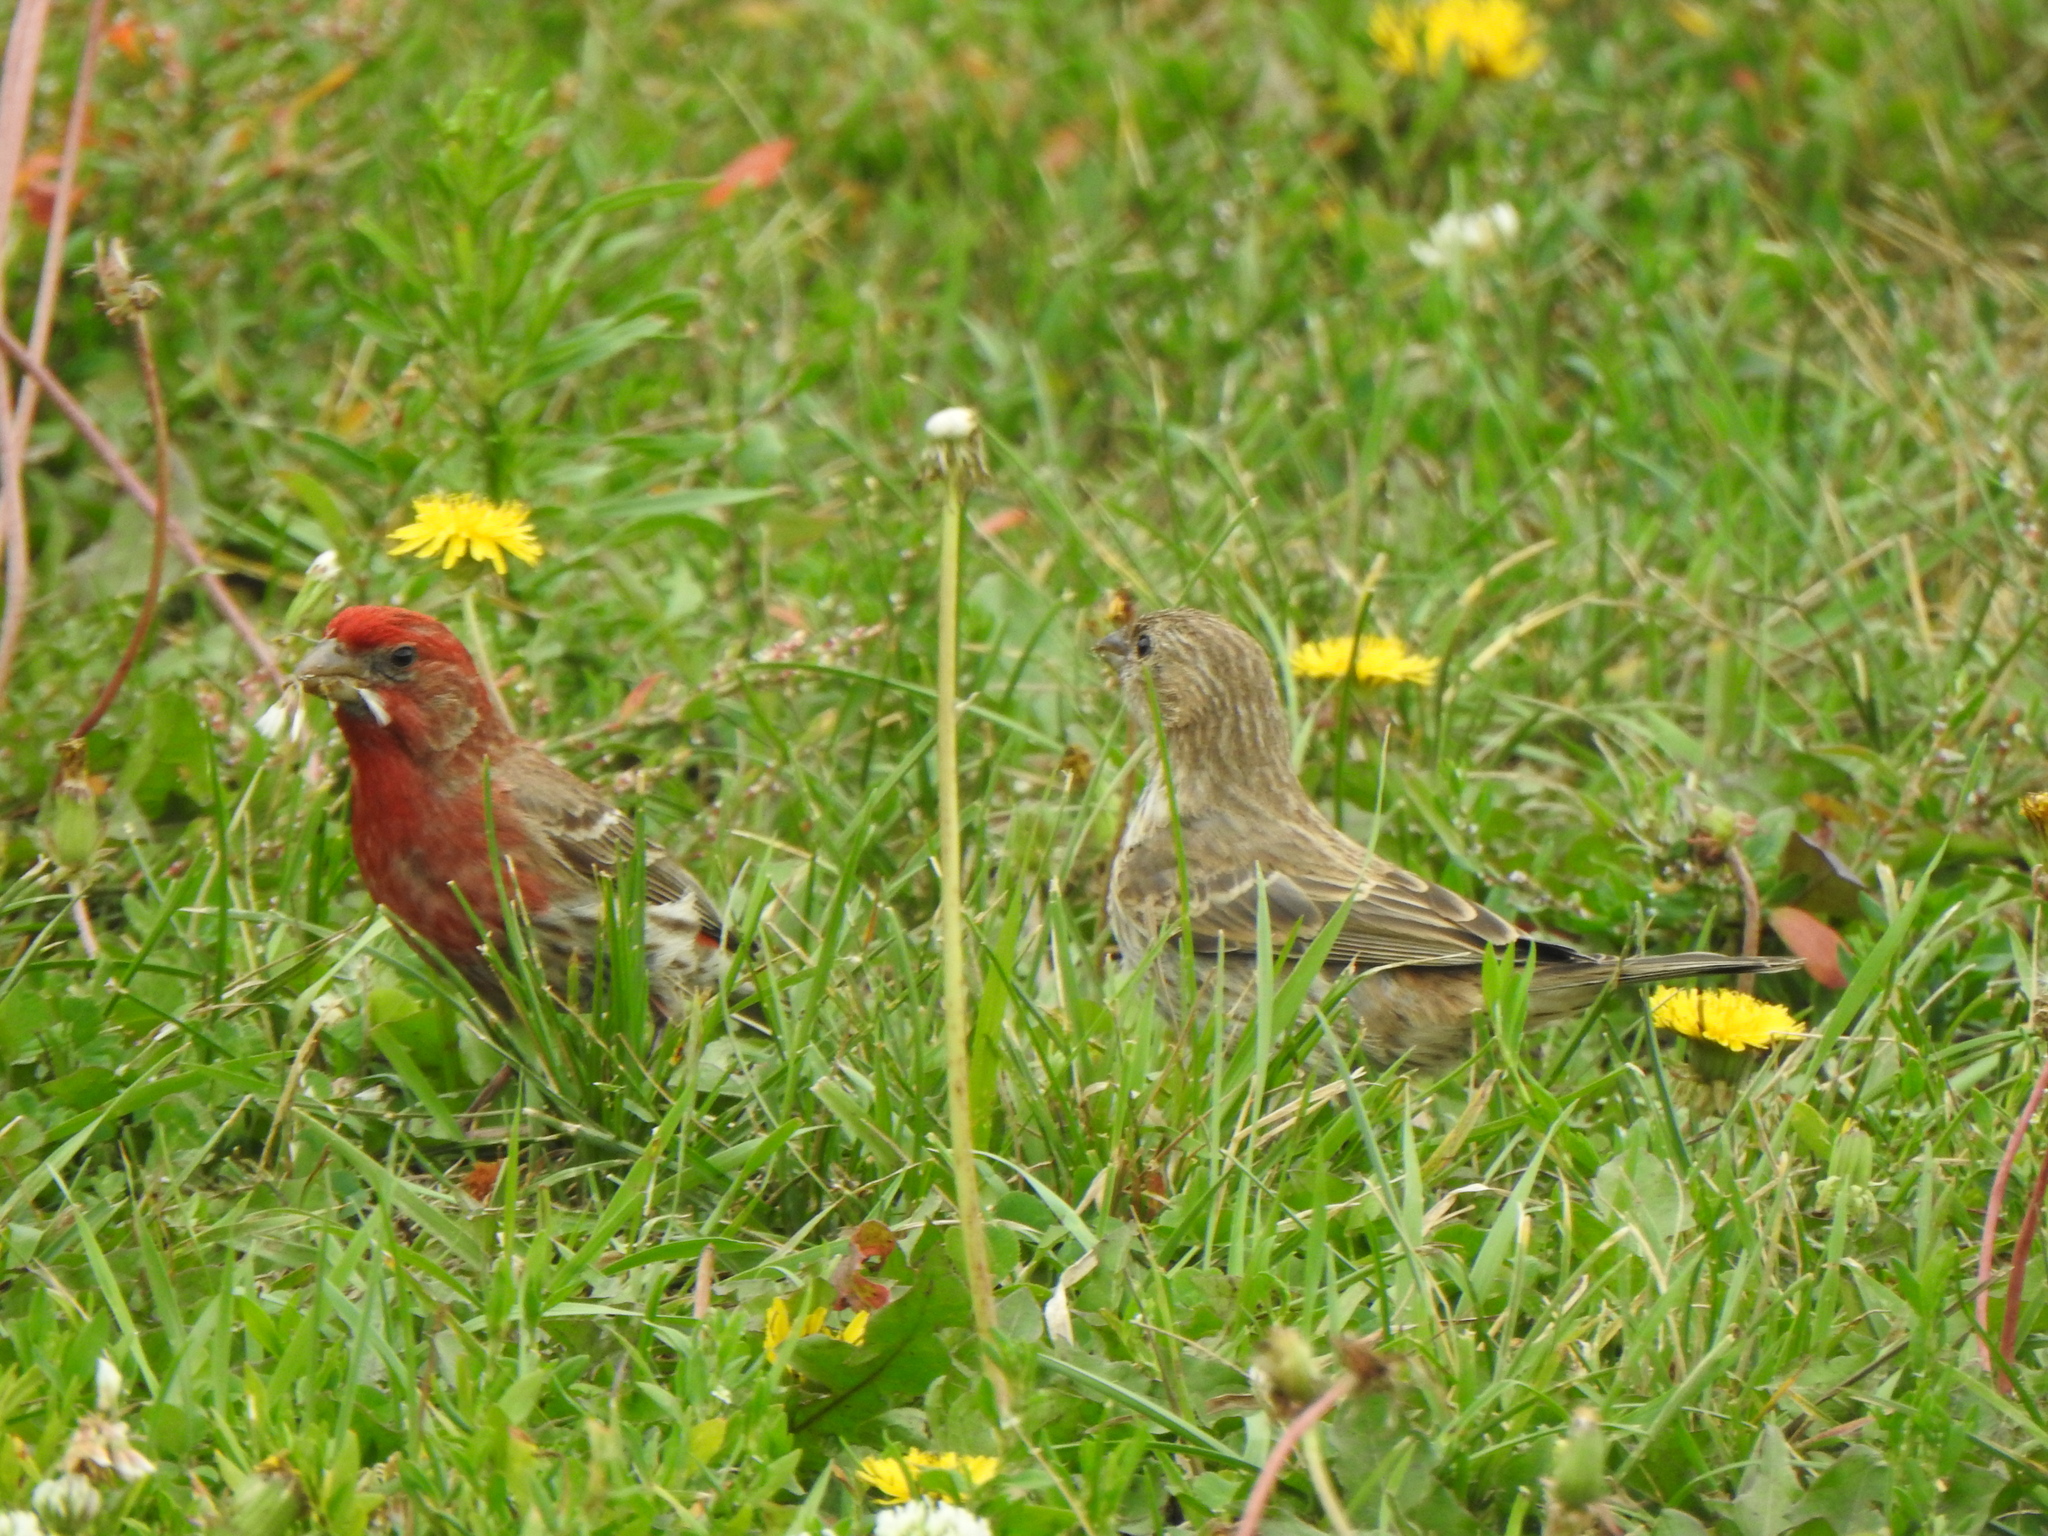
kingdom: Animalia
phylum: Chordata
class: Aves
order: Passeriformes
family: Fringillidae
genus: Haemorhous
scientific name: Haemorhous mexicanus
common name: House finch
